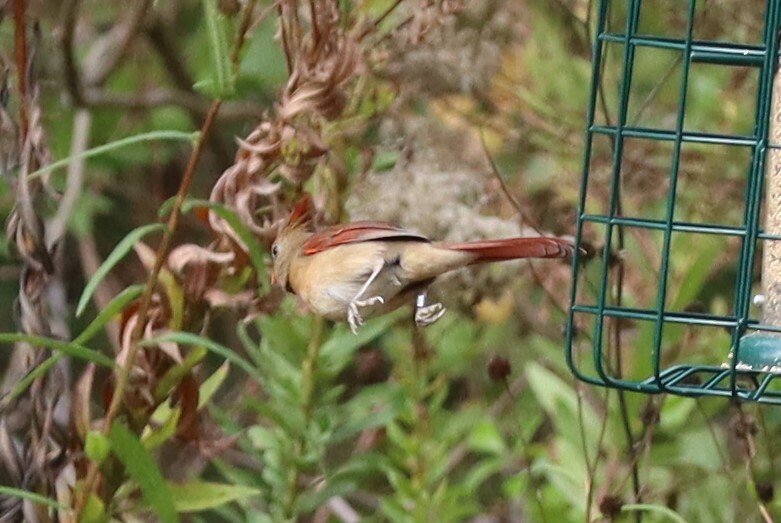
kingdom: Animalia
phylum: Chordata
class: Aves
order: Passeriformes
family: Cardinalidae
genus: Cardinalis
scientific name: Cardinalis cardinalis
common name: Northern cardinal
